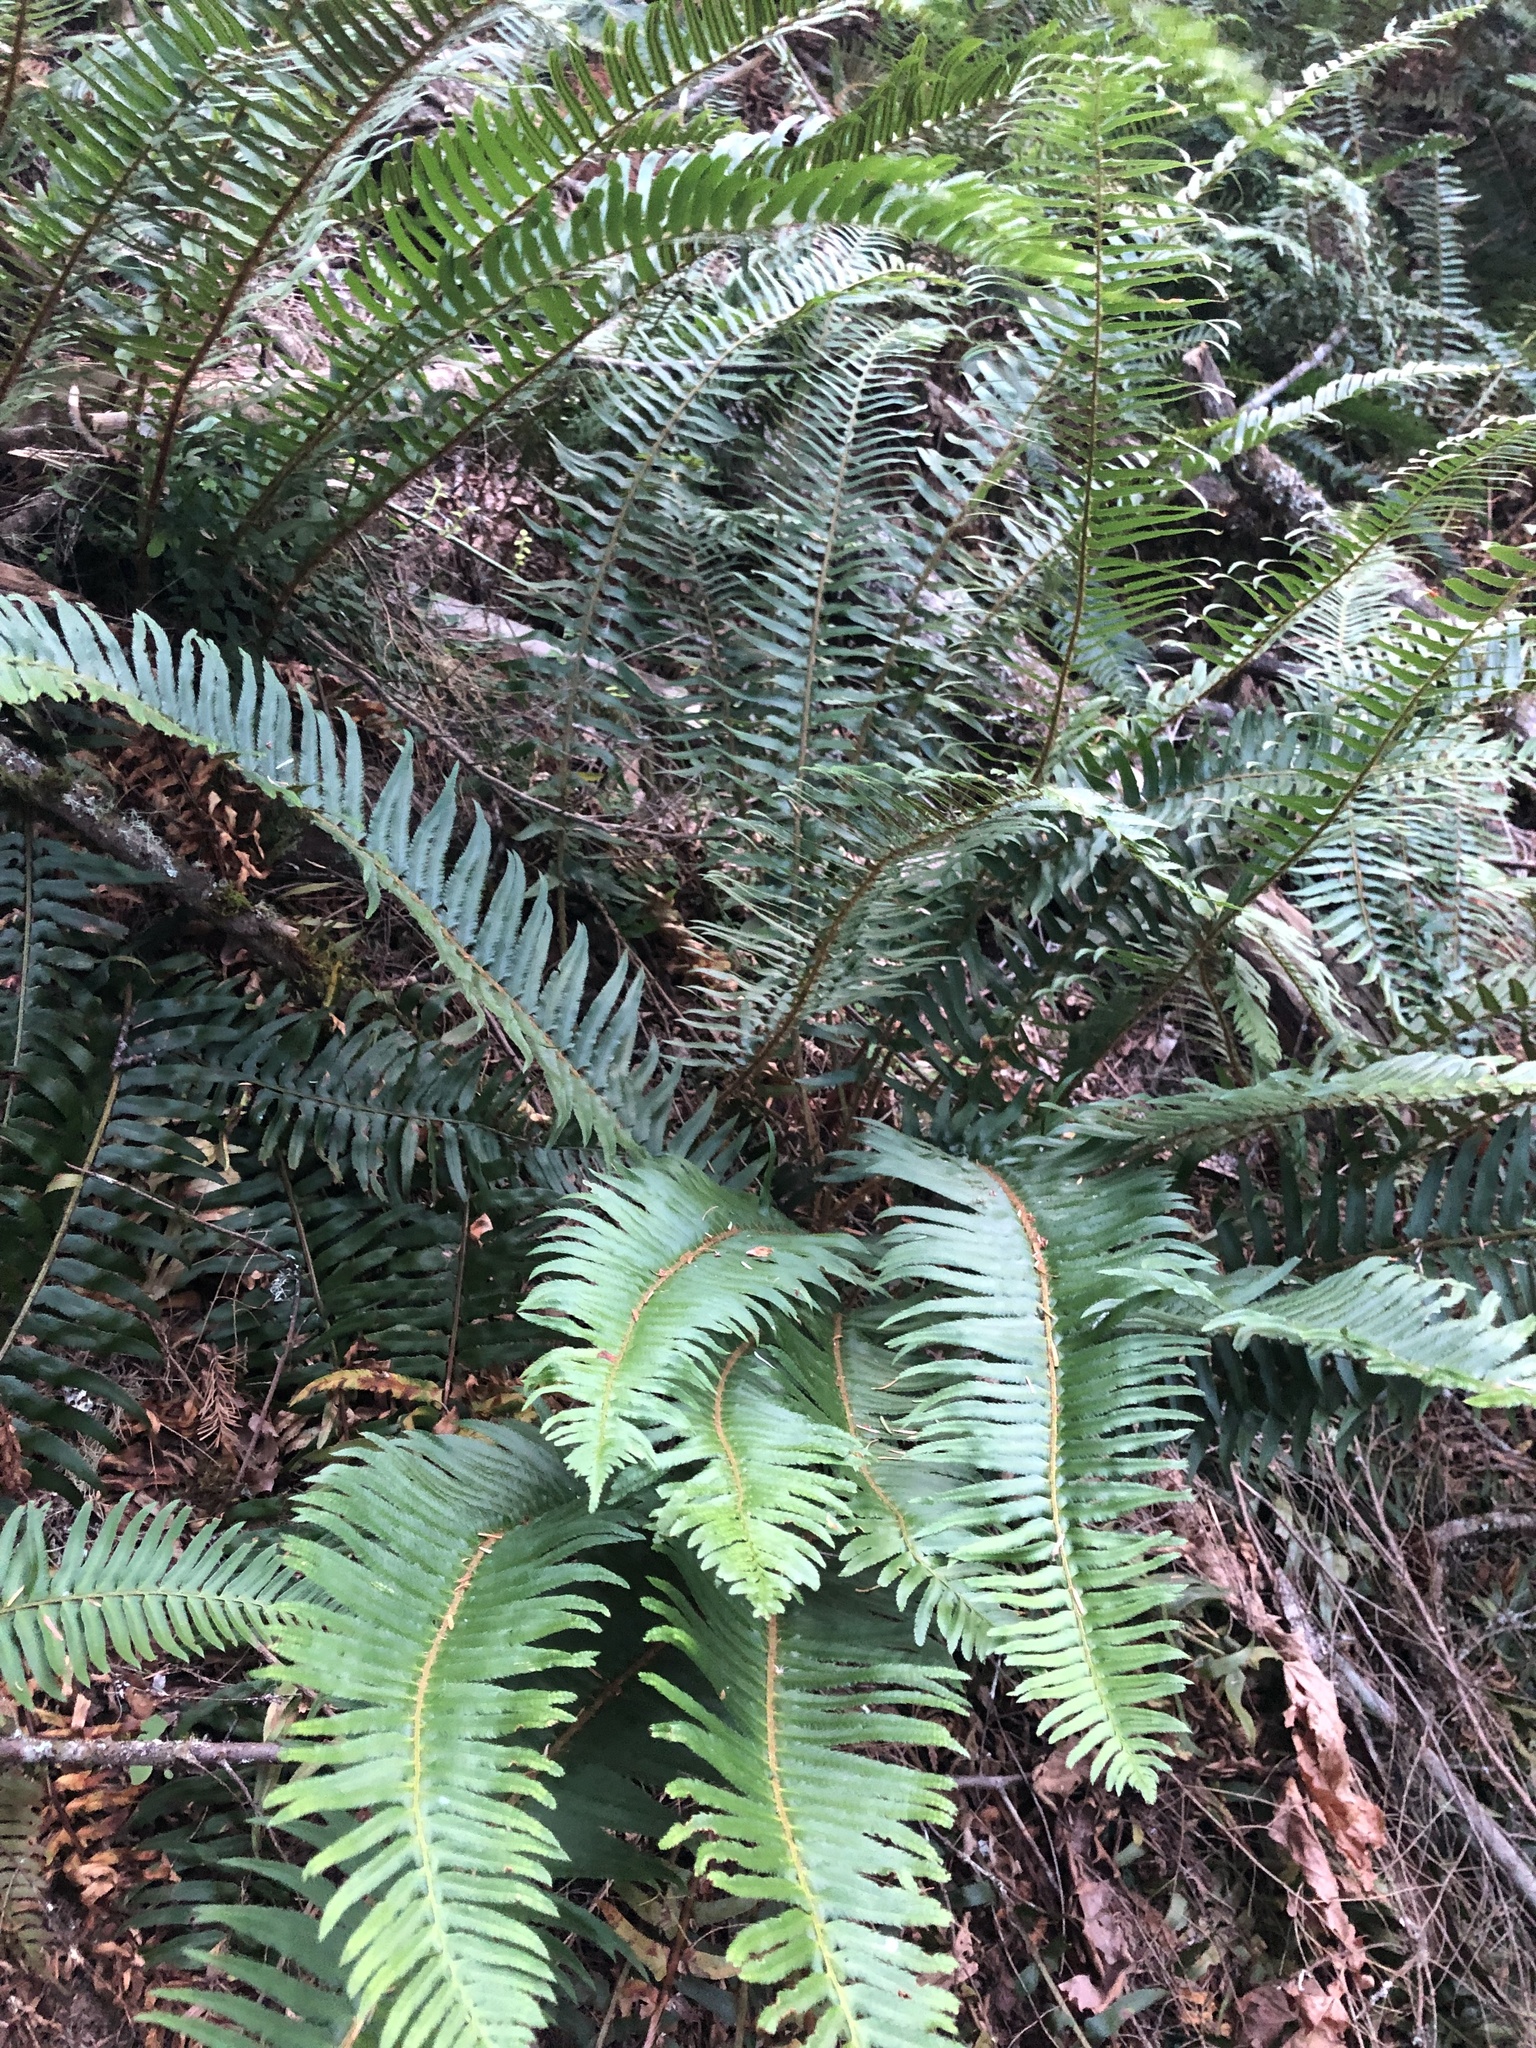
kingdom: Plantae
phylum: Tracheophyta
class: Polypodiopsida
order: Polypodiales
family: Dryopteridaceae
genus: Polystichum
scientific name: Polystichum munitum
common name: Western sword-fern
